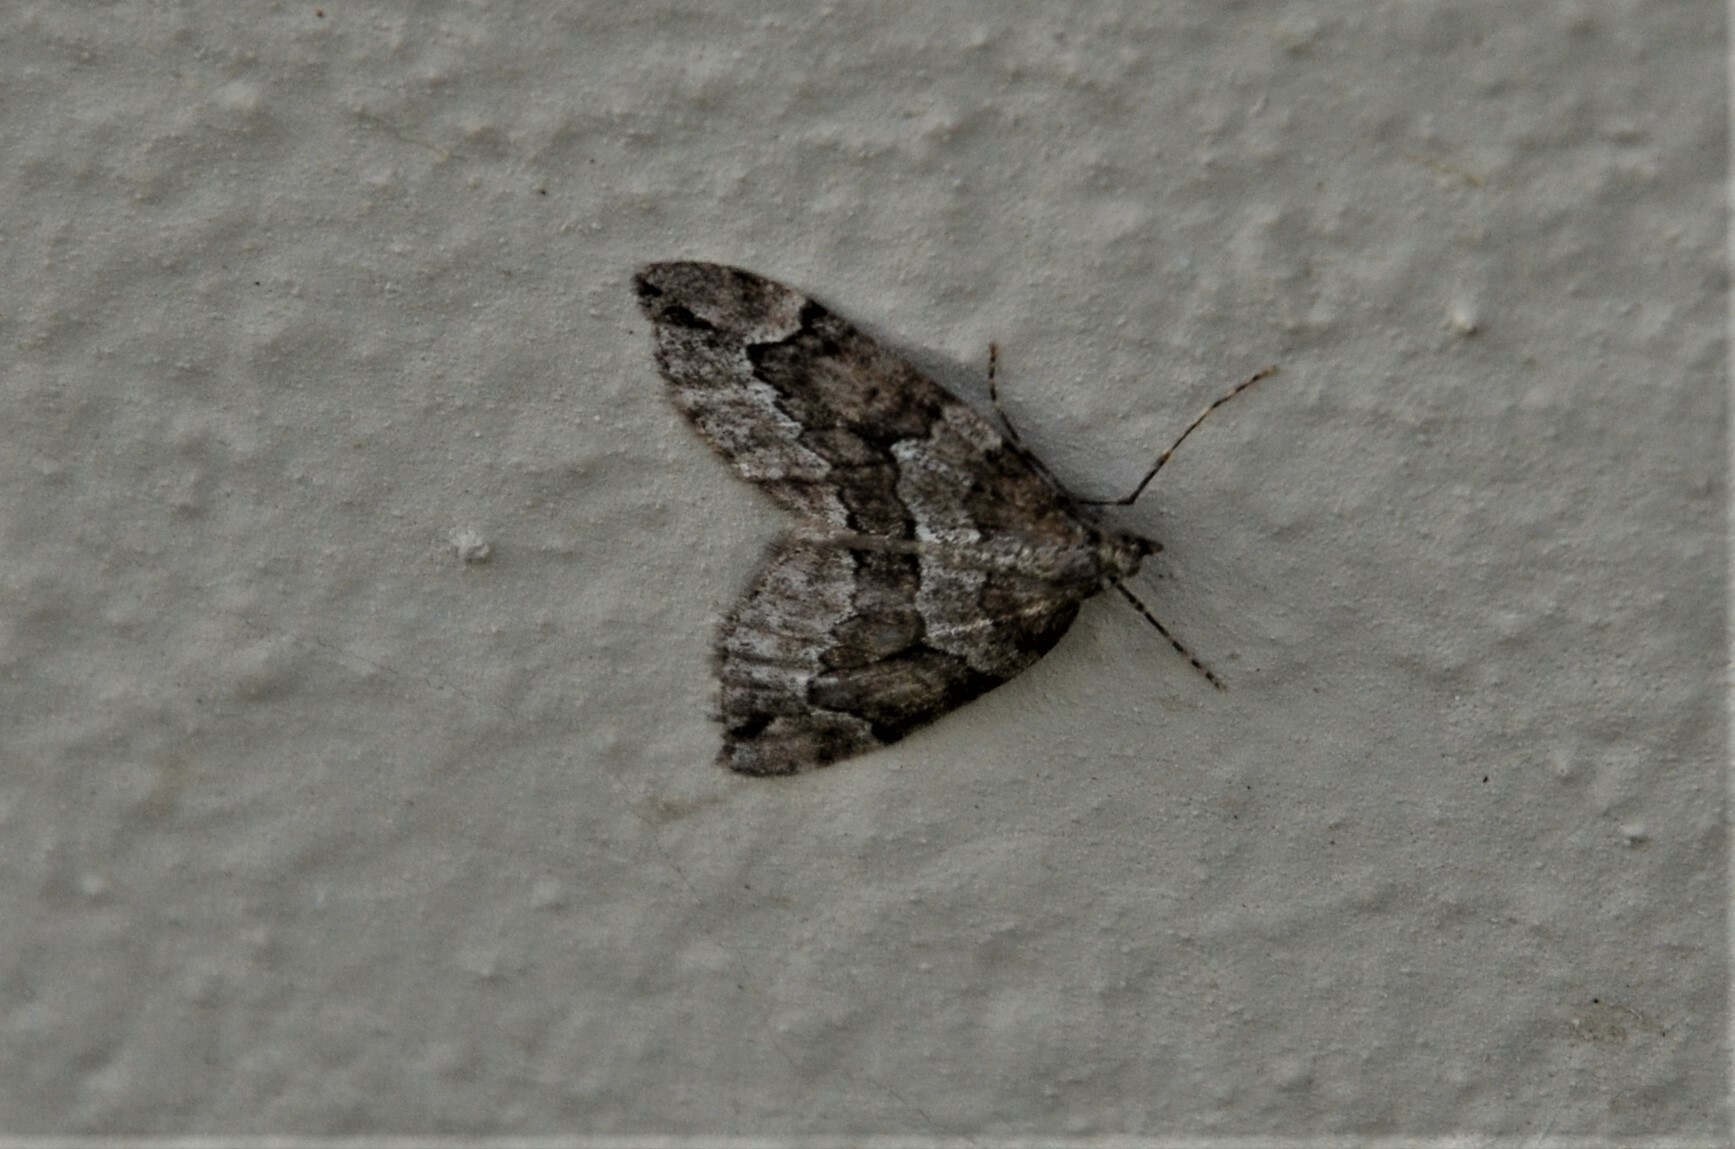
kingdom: Animalia
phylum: Arthropoda
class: Insecta
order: Lepidoptera
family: Geometridae
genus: Thera
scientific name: Thera juniperata
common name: Juniper carpet
